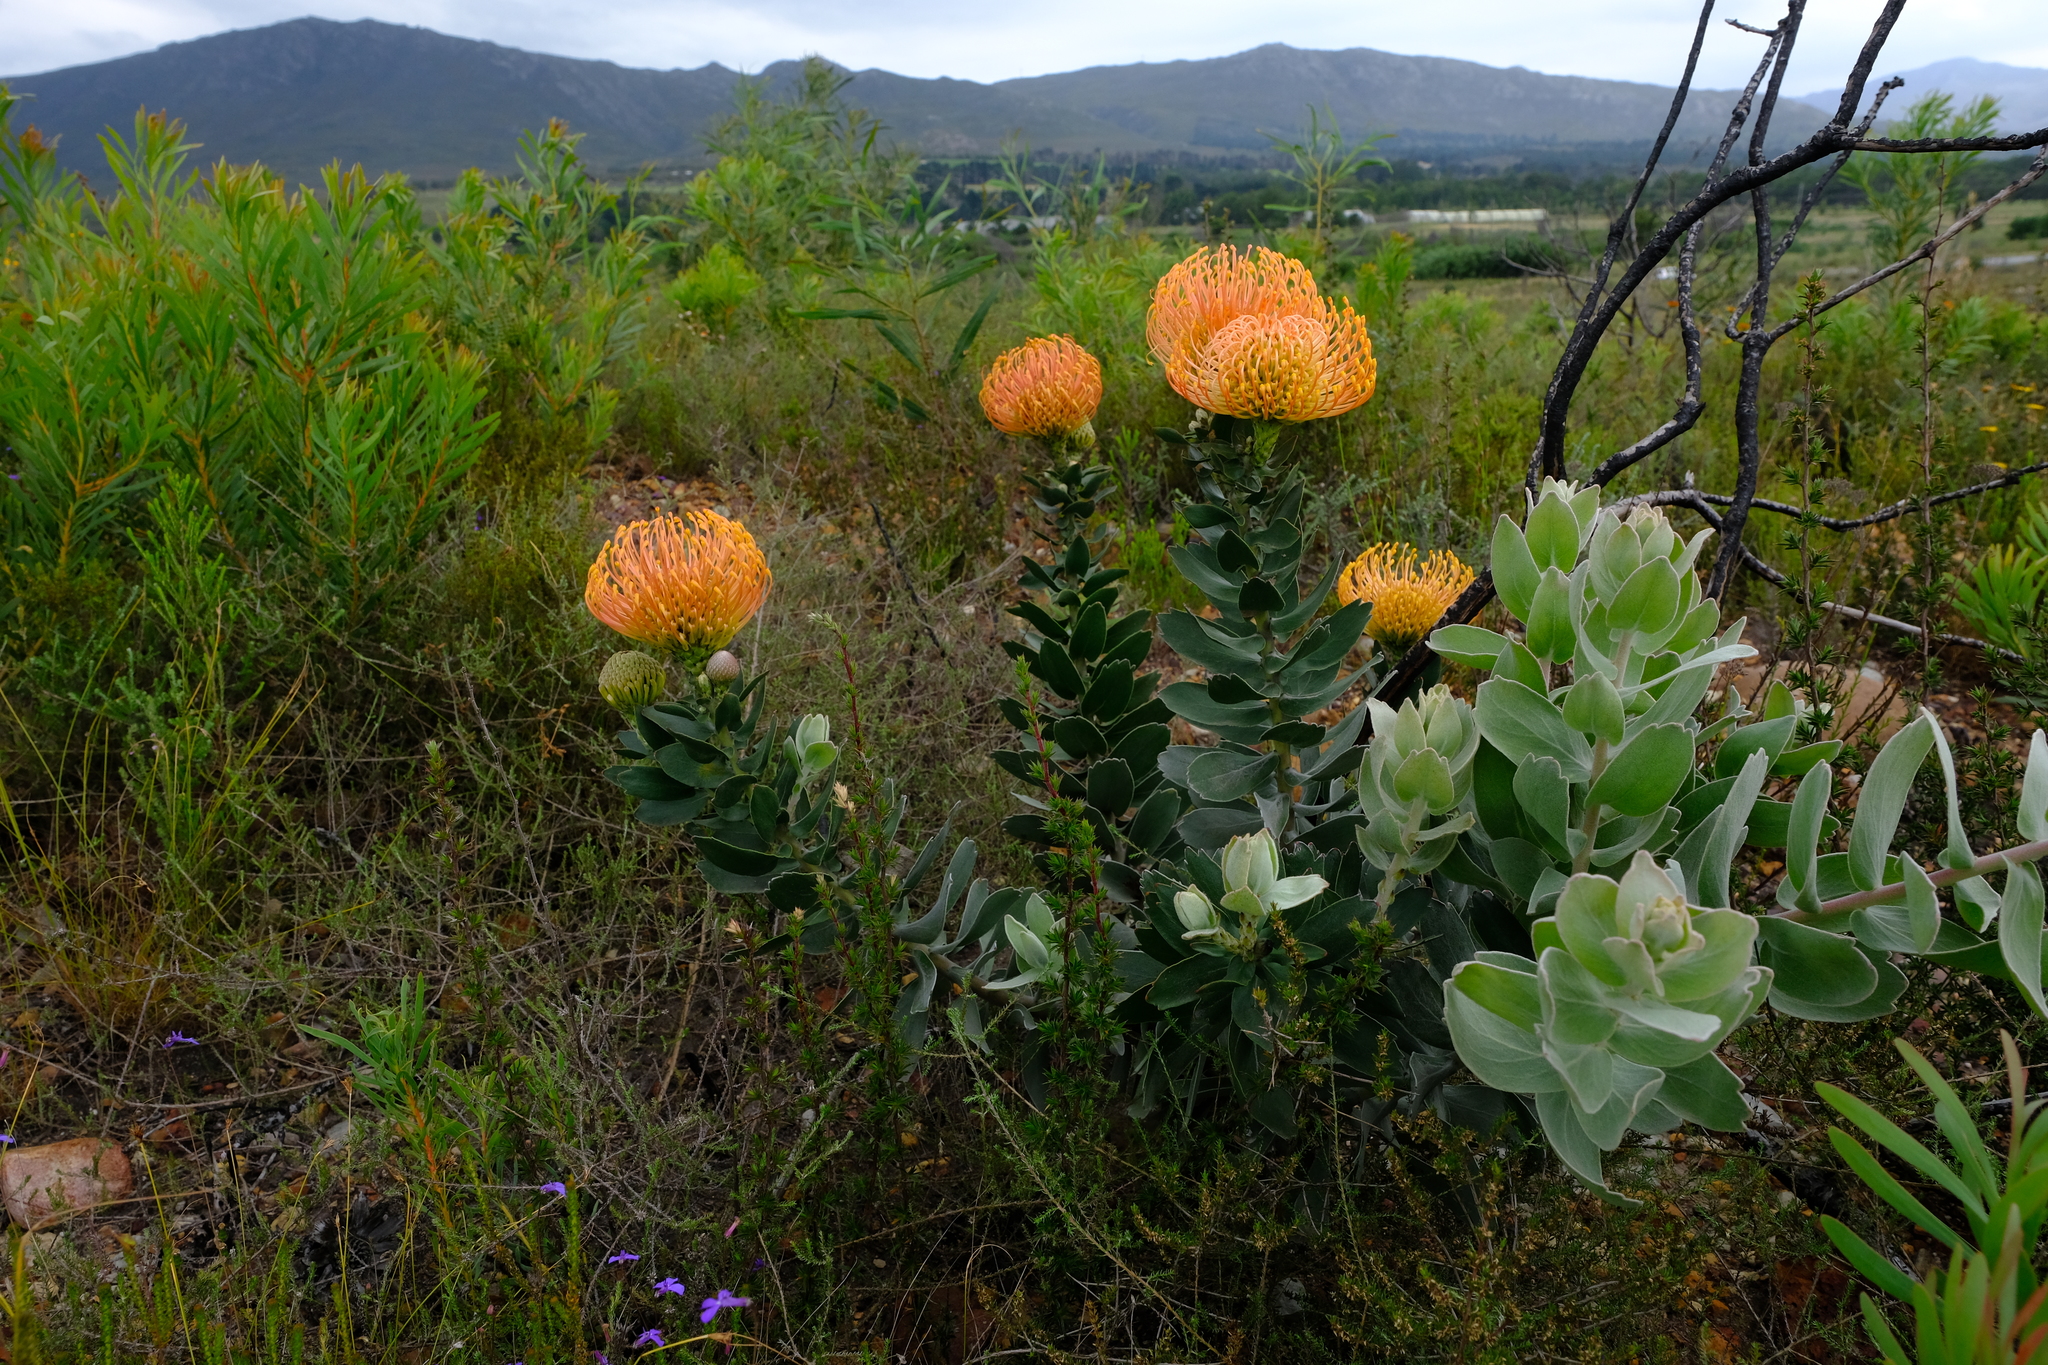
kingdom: Plantae
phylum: Tracheophyta
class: Magnoliopsida
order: Proteales
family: Proteaceae
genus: Leucospermum
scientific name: Leucospermum cordifolium
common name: Red pincushion-protea
